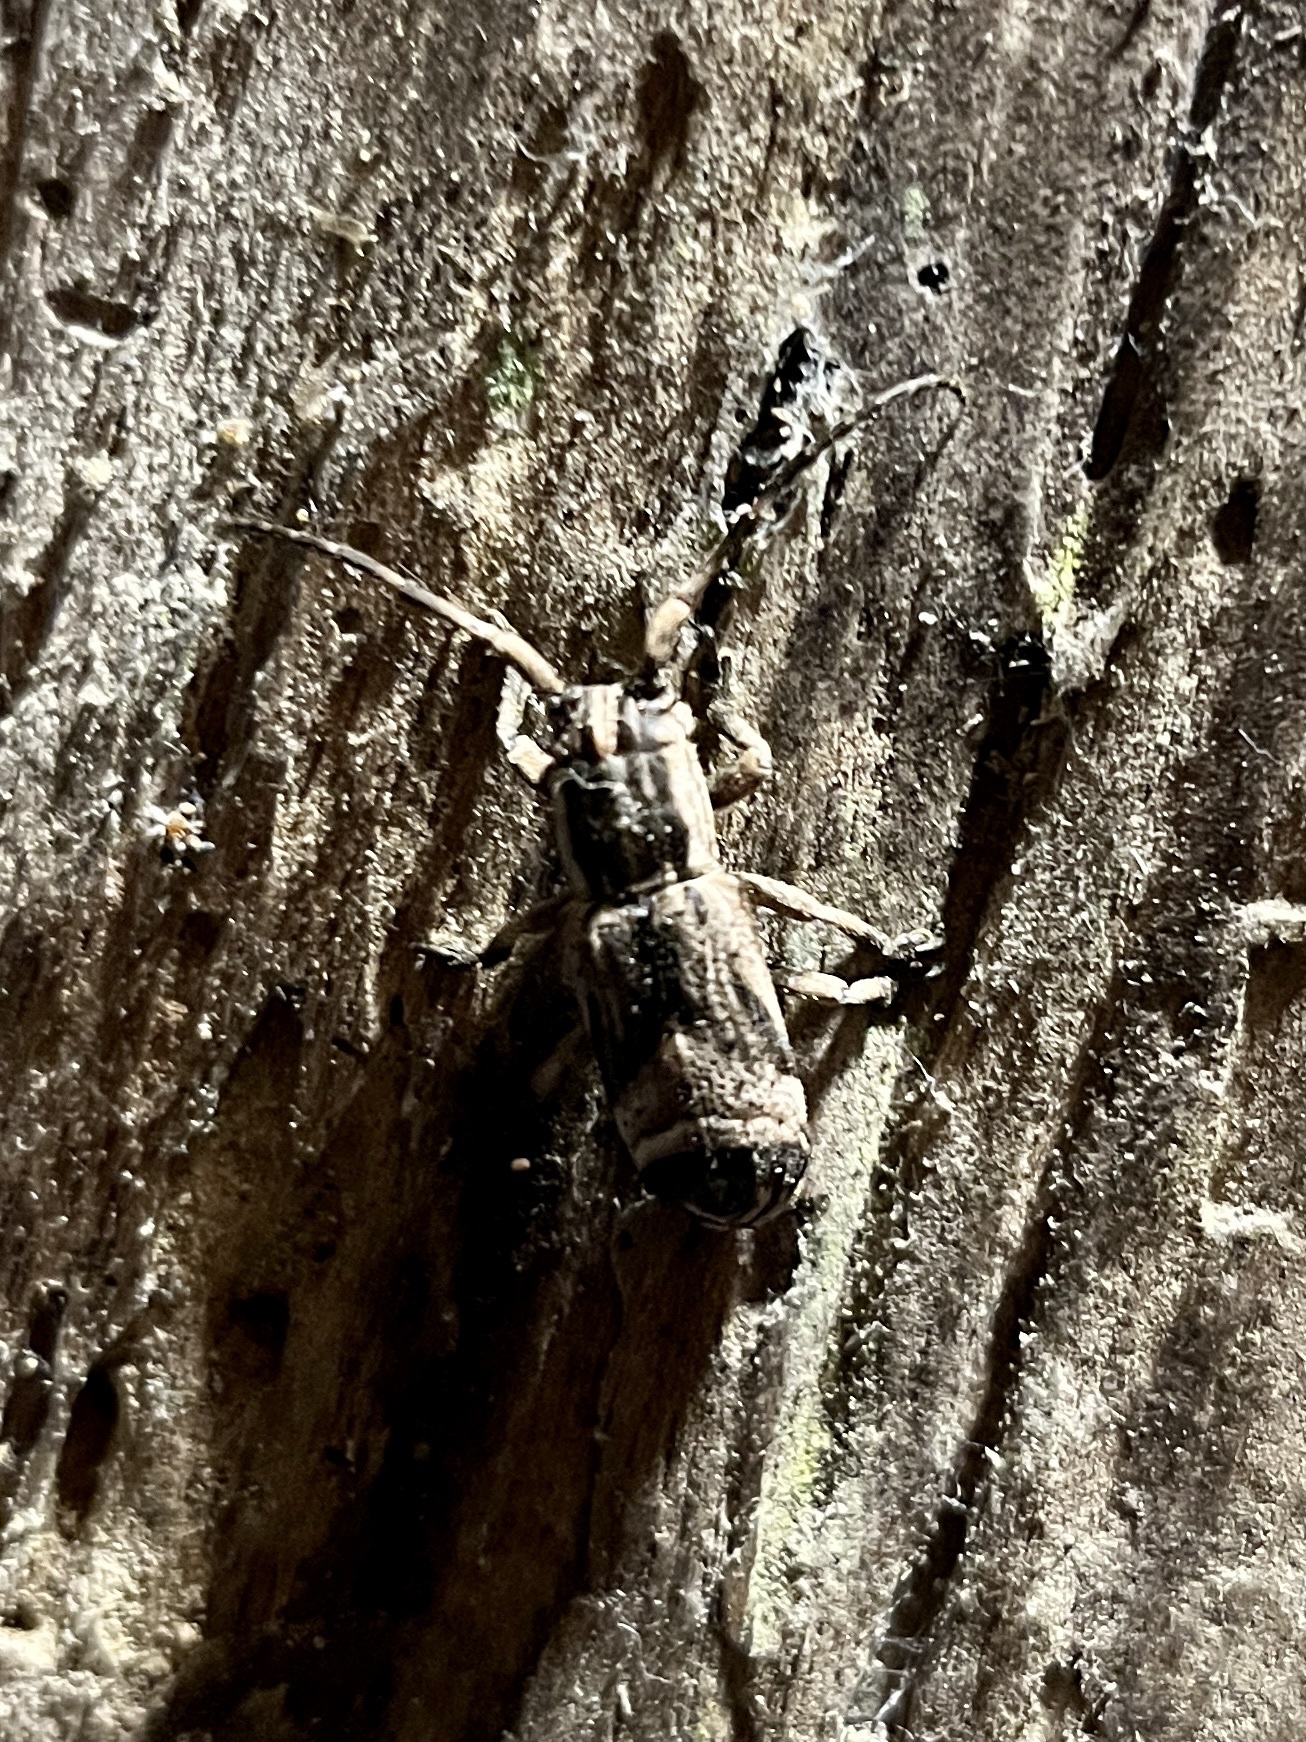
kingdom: Animalia
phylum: Arthropoda
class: Insecta
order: Coleoptera
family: Cerambycidae
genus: Sthenias
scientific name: Sthenias tonkinea
